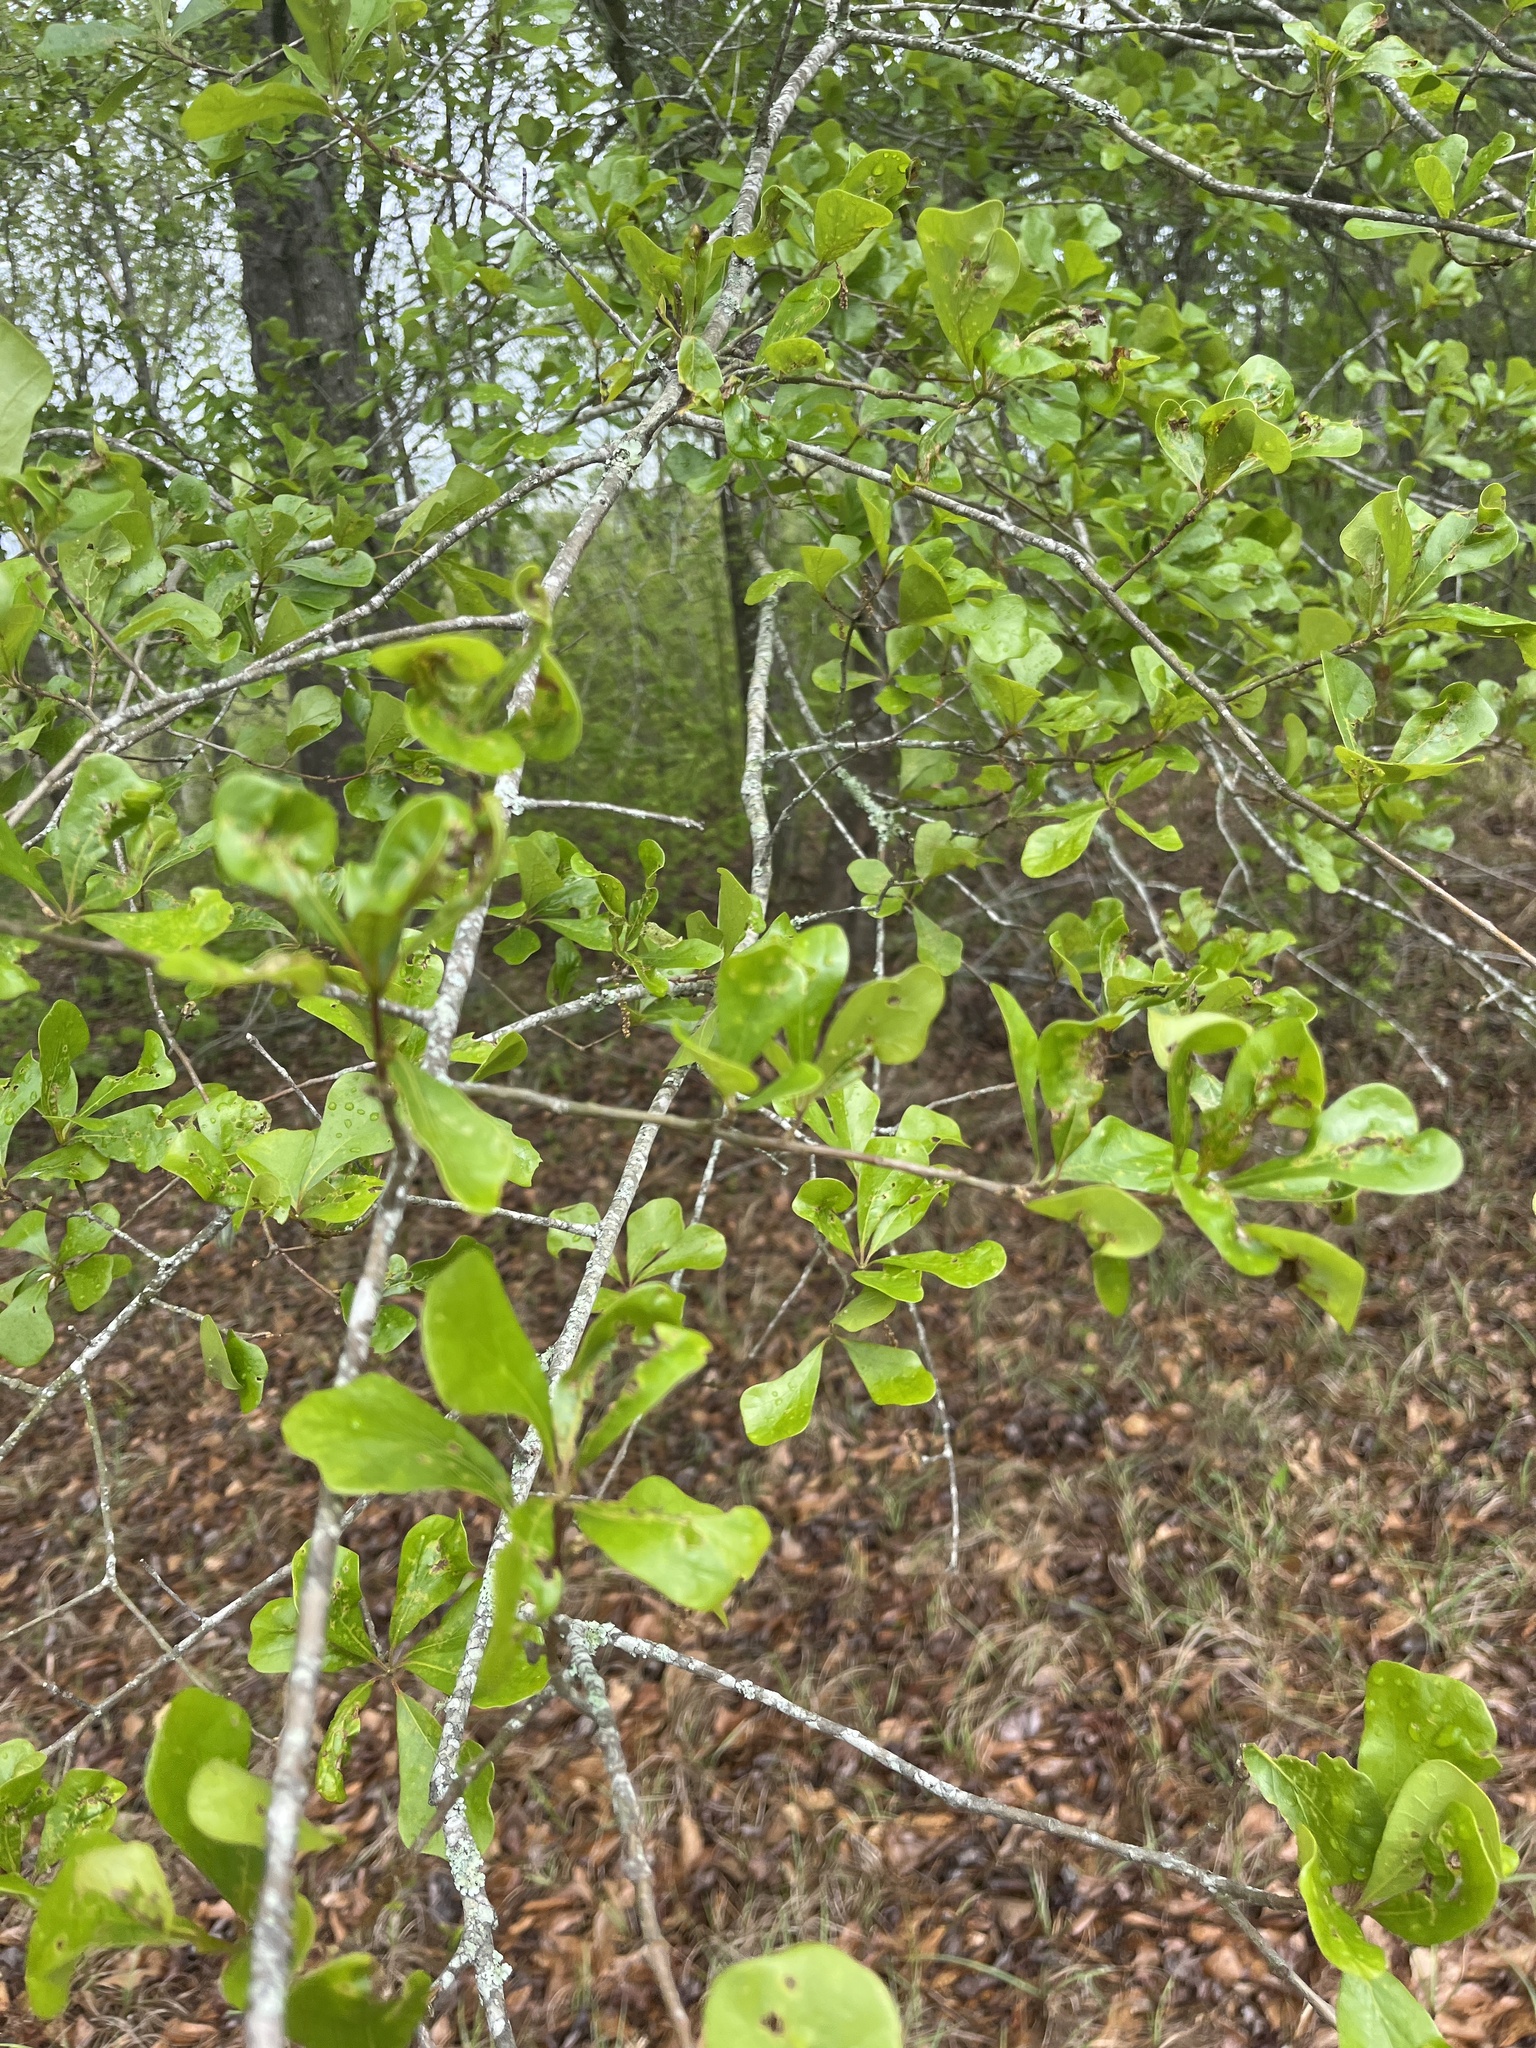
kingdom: Plantae
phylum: Tracheophyta
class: Magnoliopsida
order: Fagales
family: Fagaceae
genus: Quercus
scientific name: Quercus nigra
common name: Water oak
